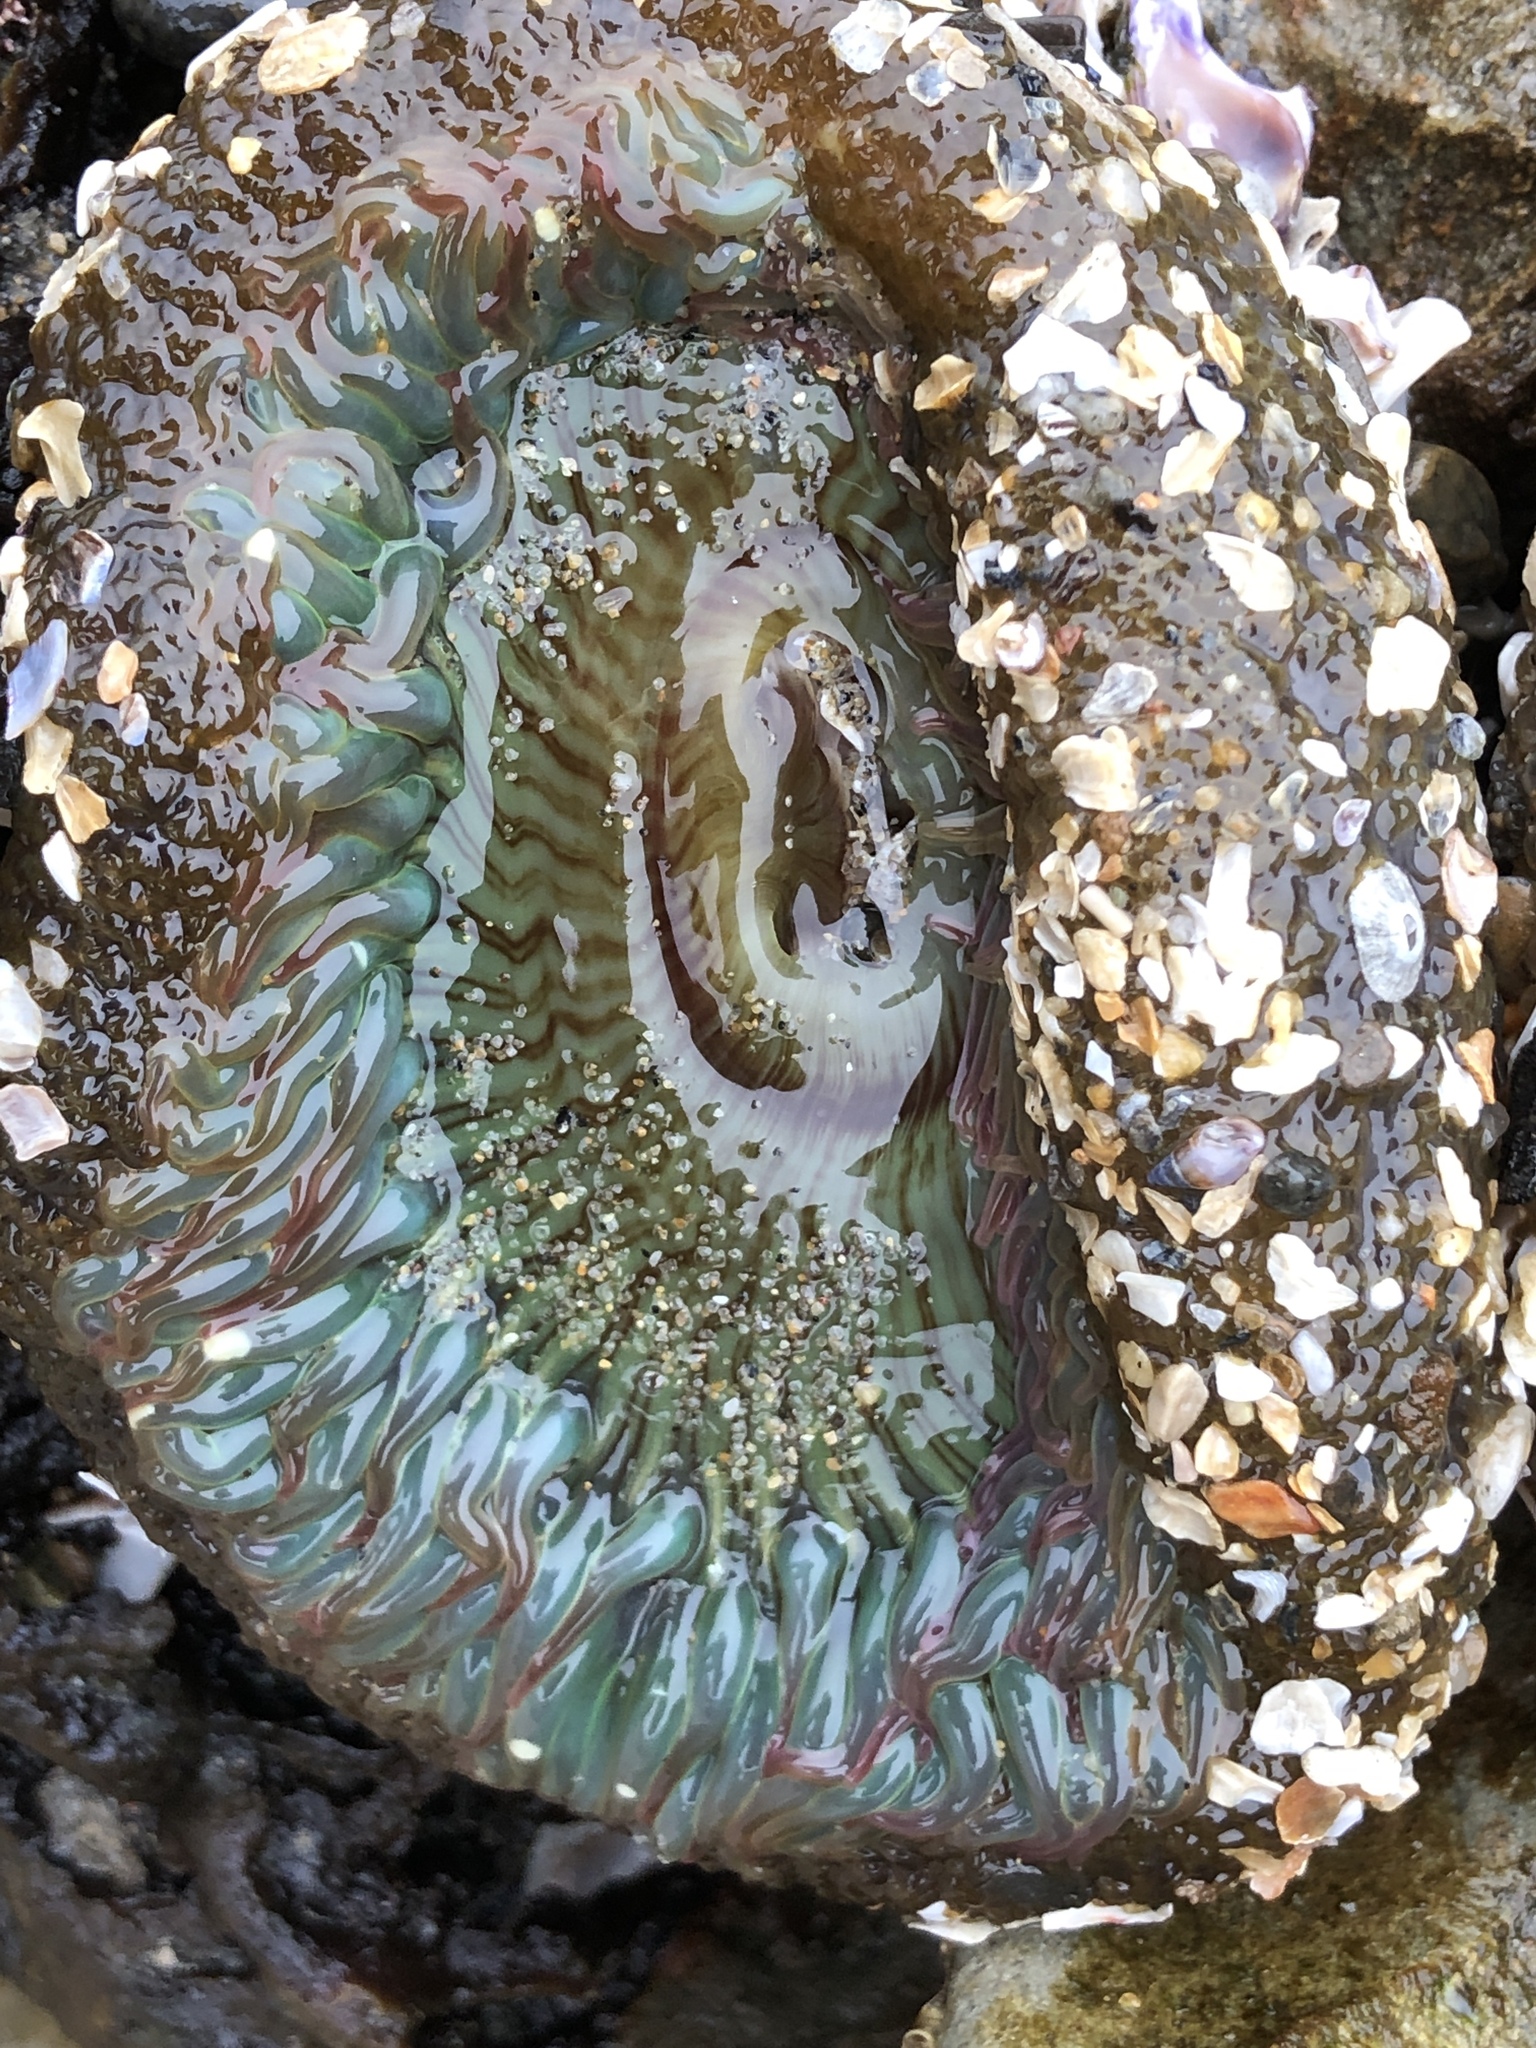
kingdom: Animalia
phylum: Cnidaria
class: Anthozoa
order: Actiniaria
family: Actiniidae
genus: Anthopleura
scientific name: Anthopleura sola
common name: Sun anemone
